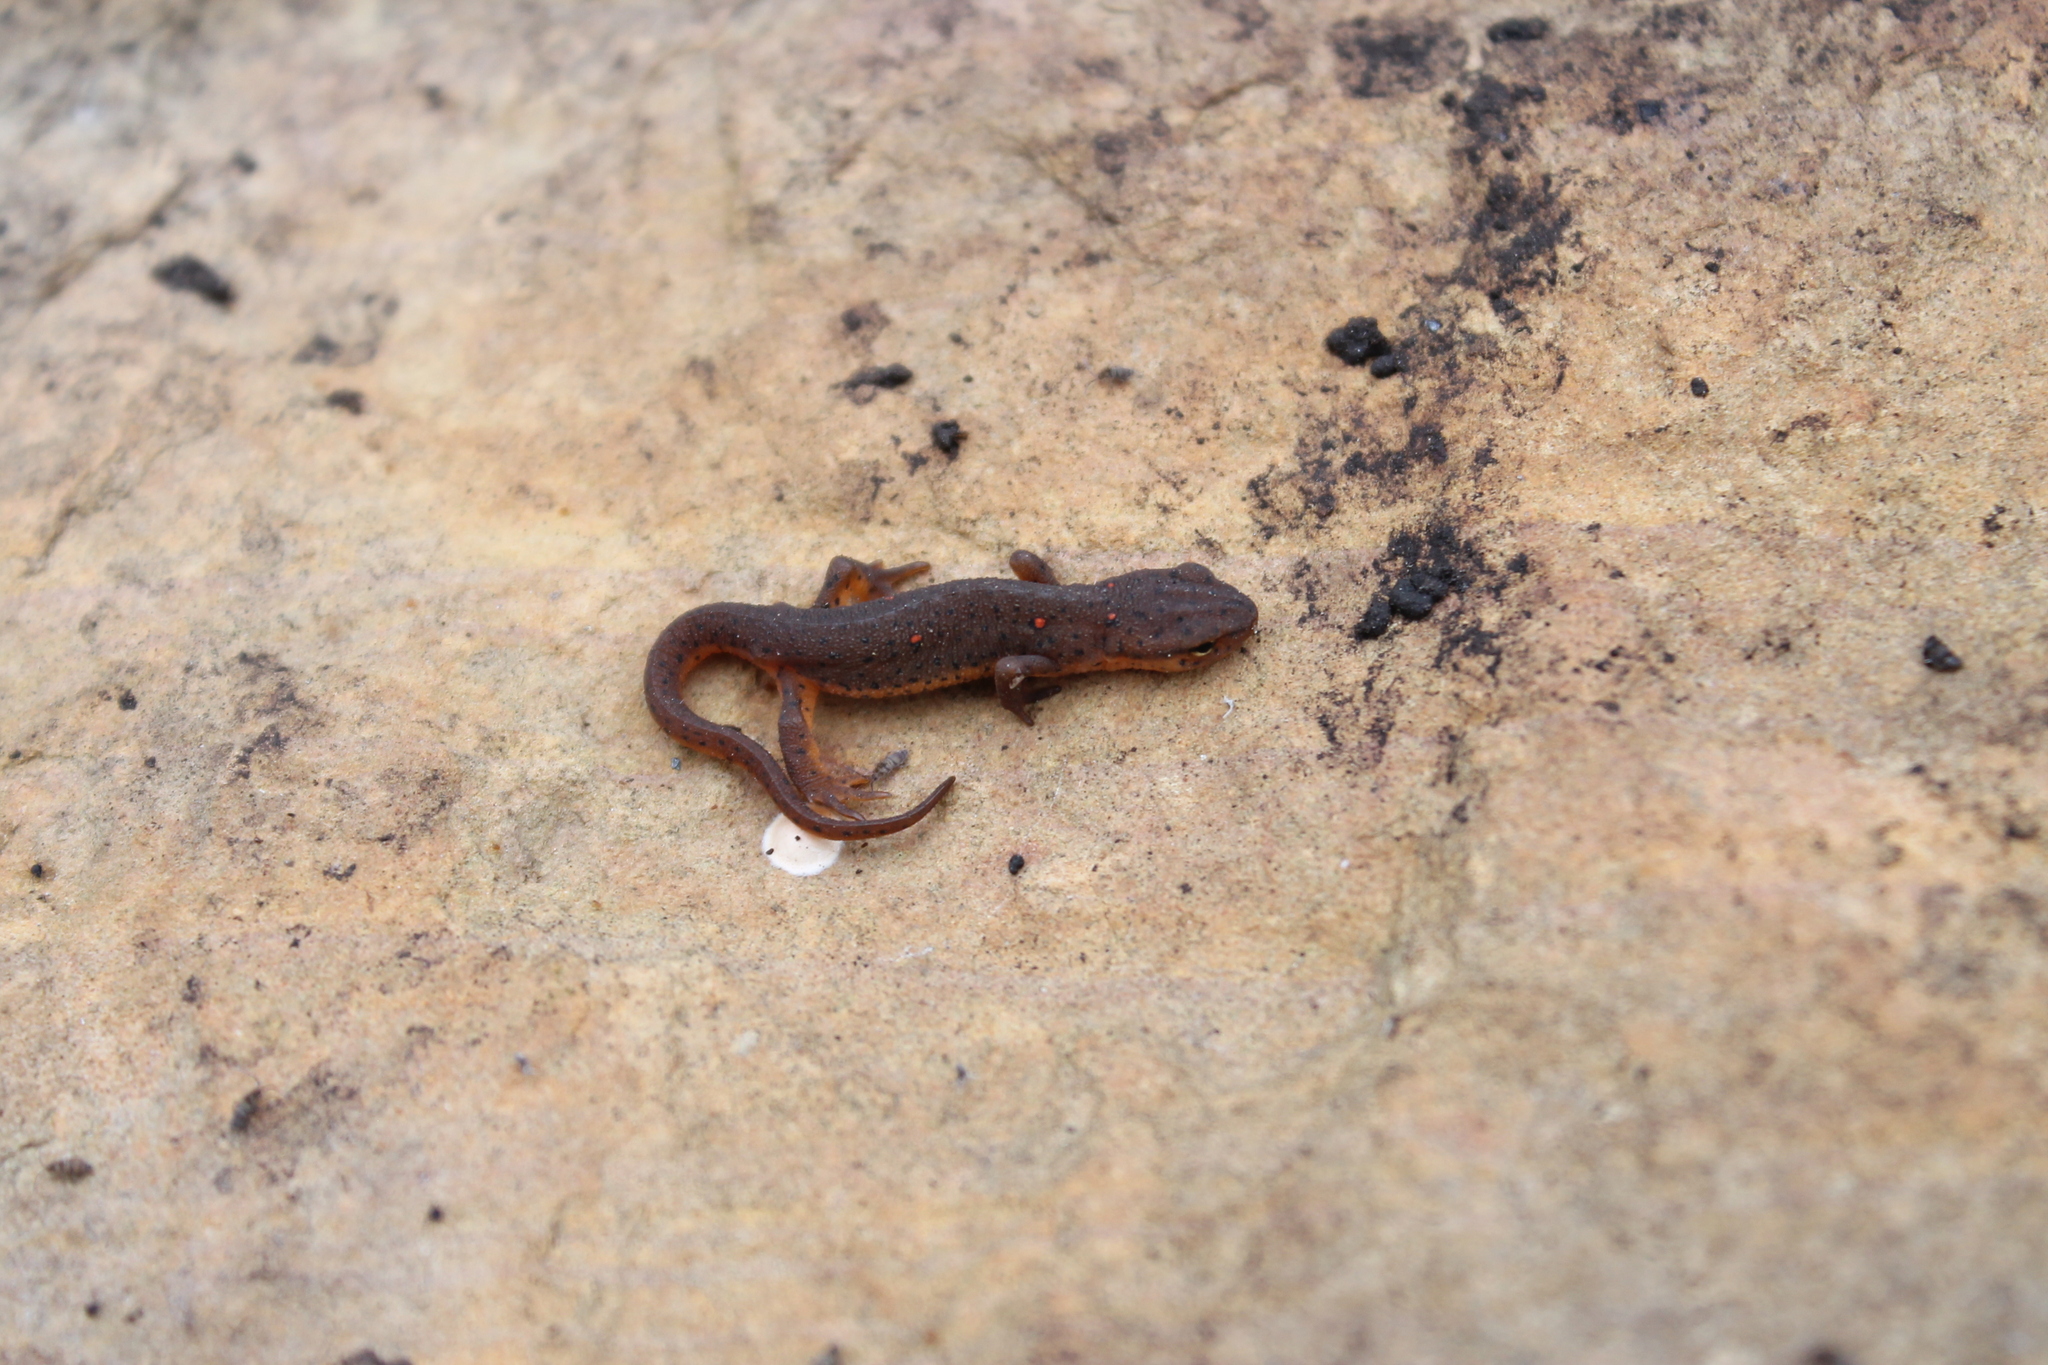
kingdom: Animalia
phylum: Chordata
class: Amphibia
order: Caudata
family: Salamandridae
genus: Notophthalmus
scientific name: Notophthalmus viridescens
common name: Eastern newt
